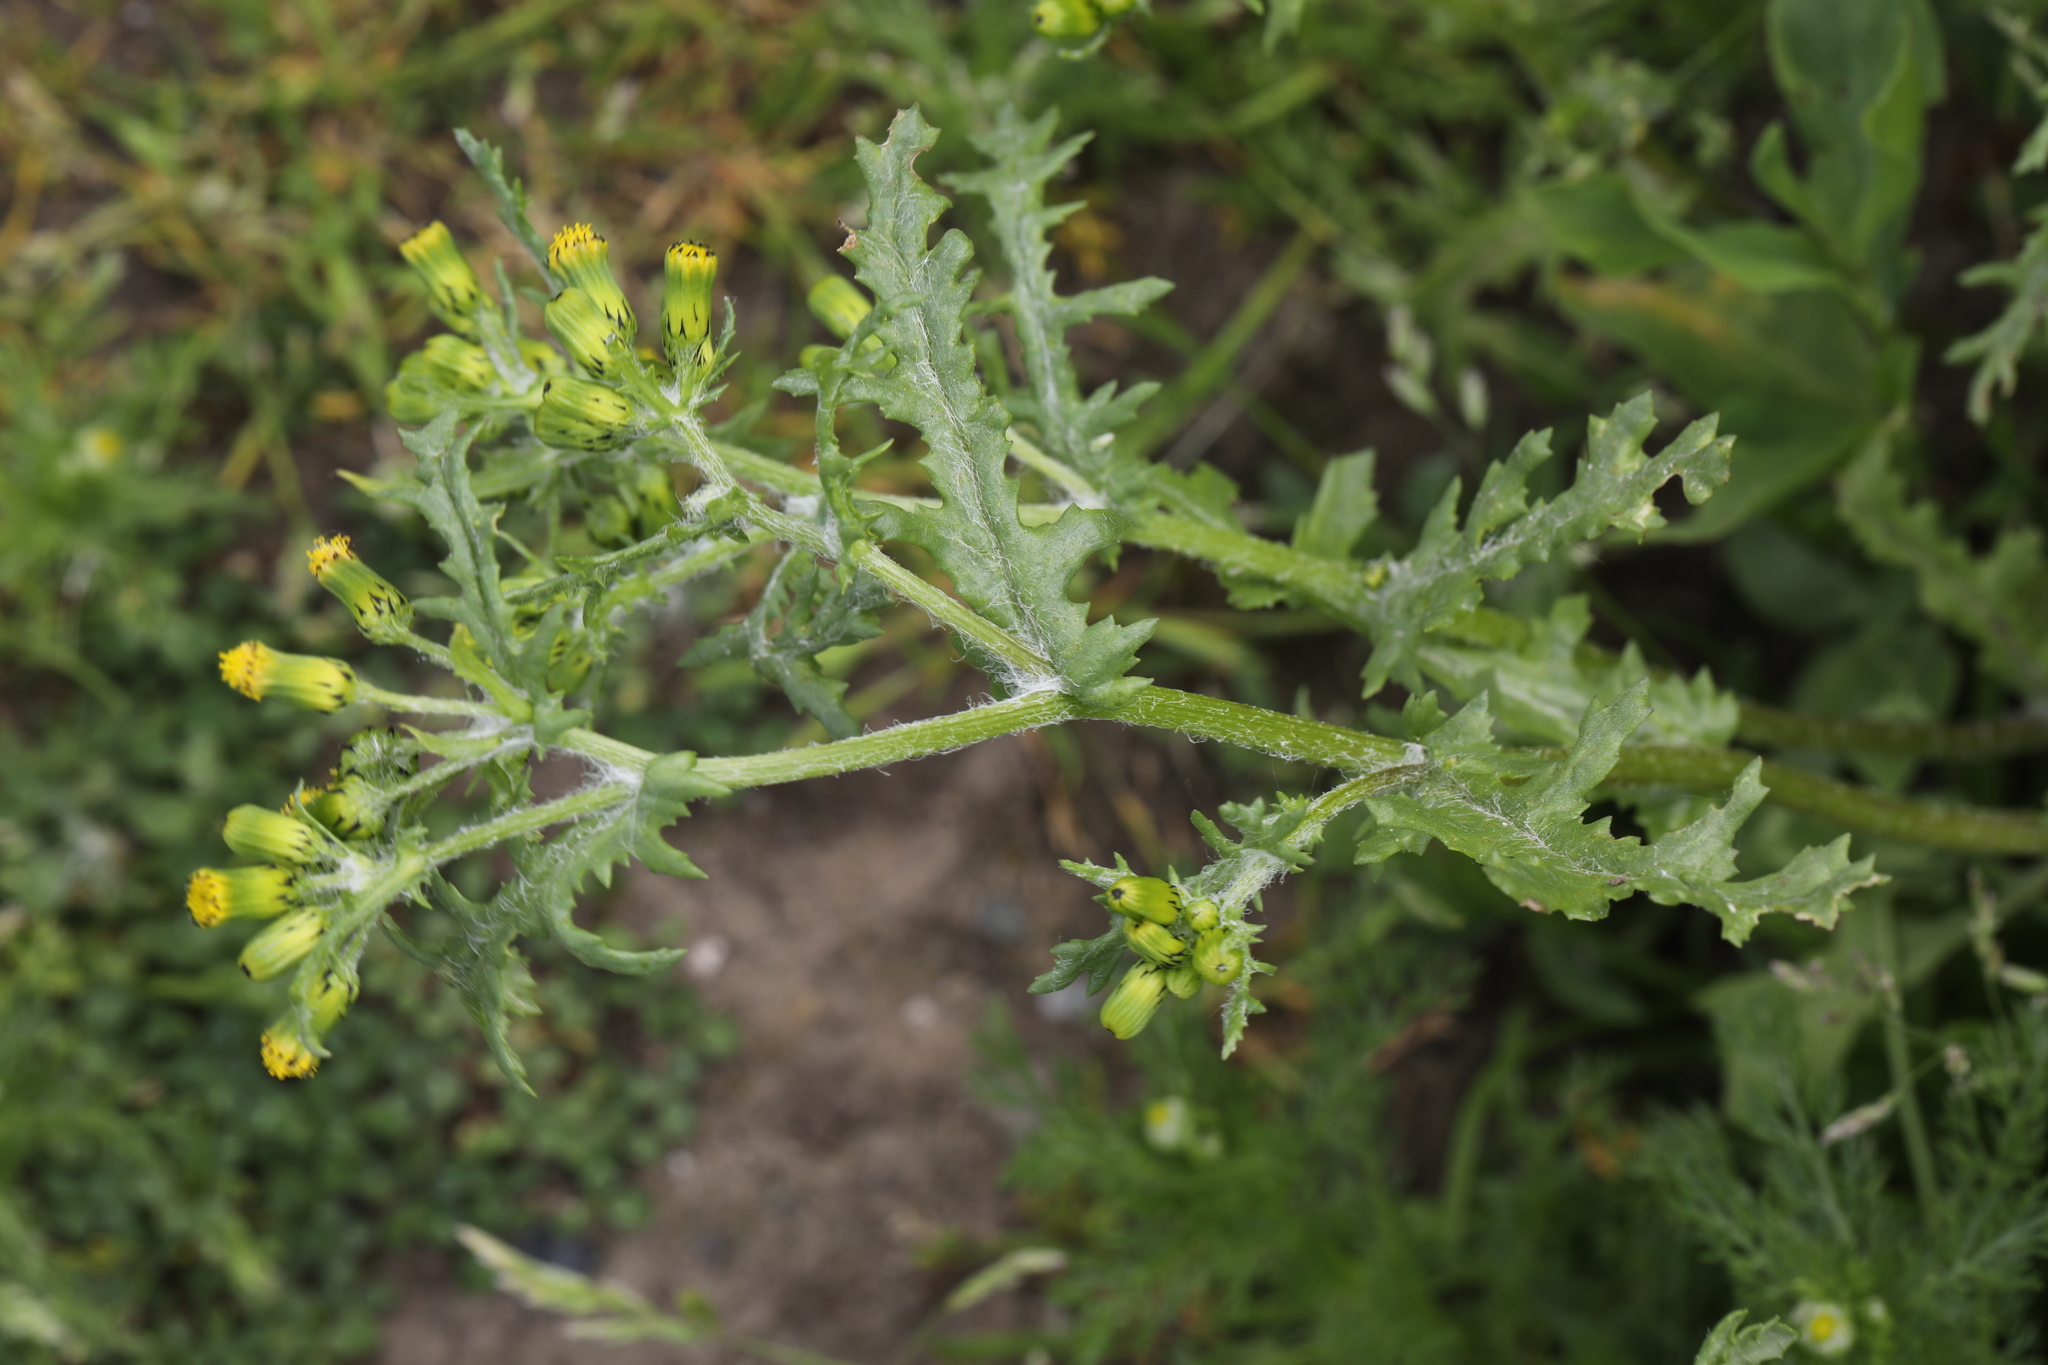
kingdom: Plantae
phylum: Tracheophyta
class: Magnoliopsida
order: Asterales
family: Asteraceae
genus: Senecio
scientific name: Senecio vulgaris
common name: Old-man-in-the-spring
